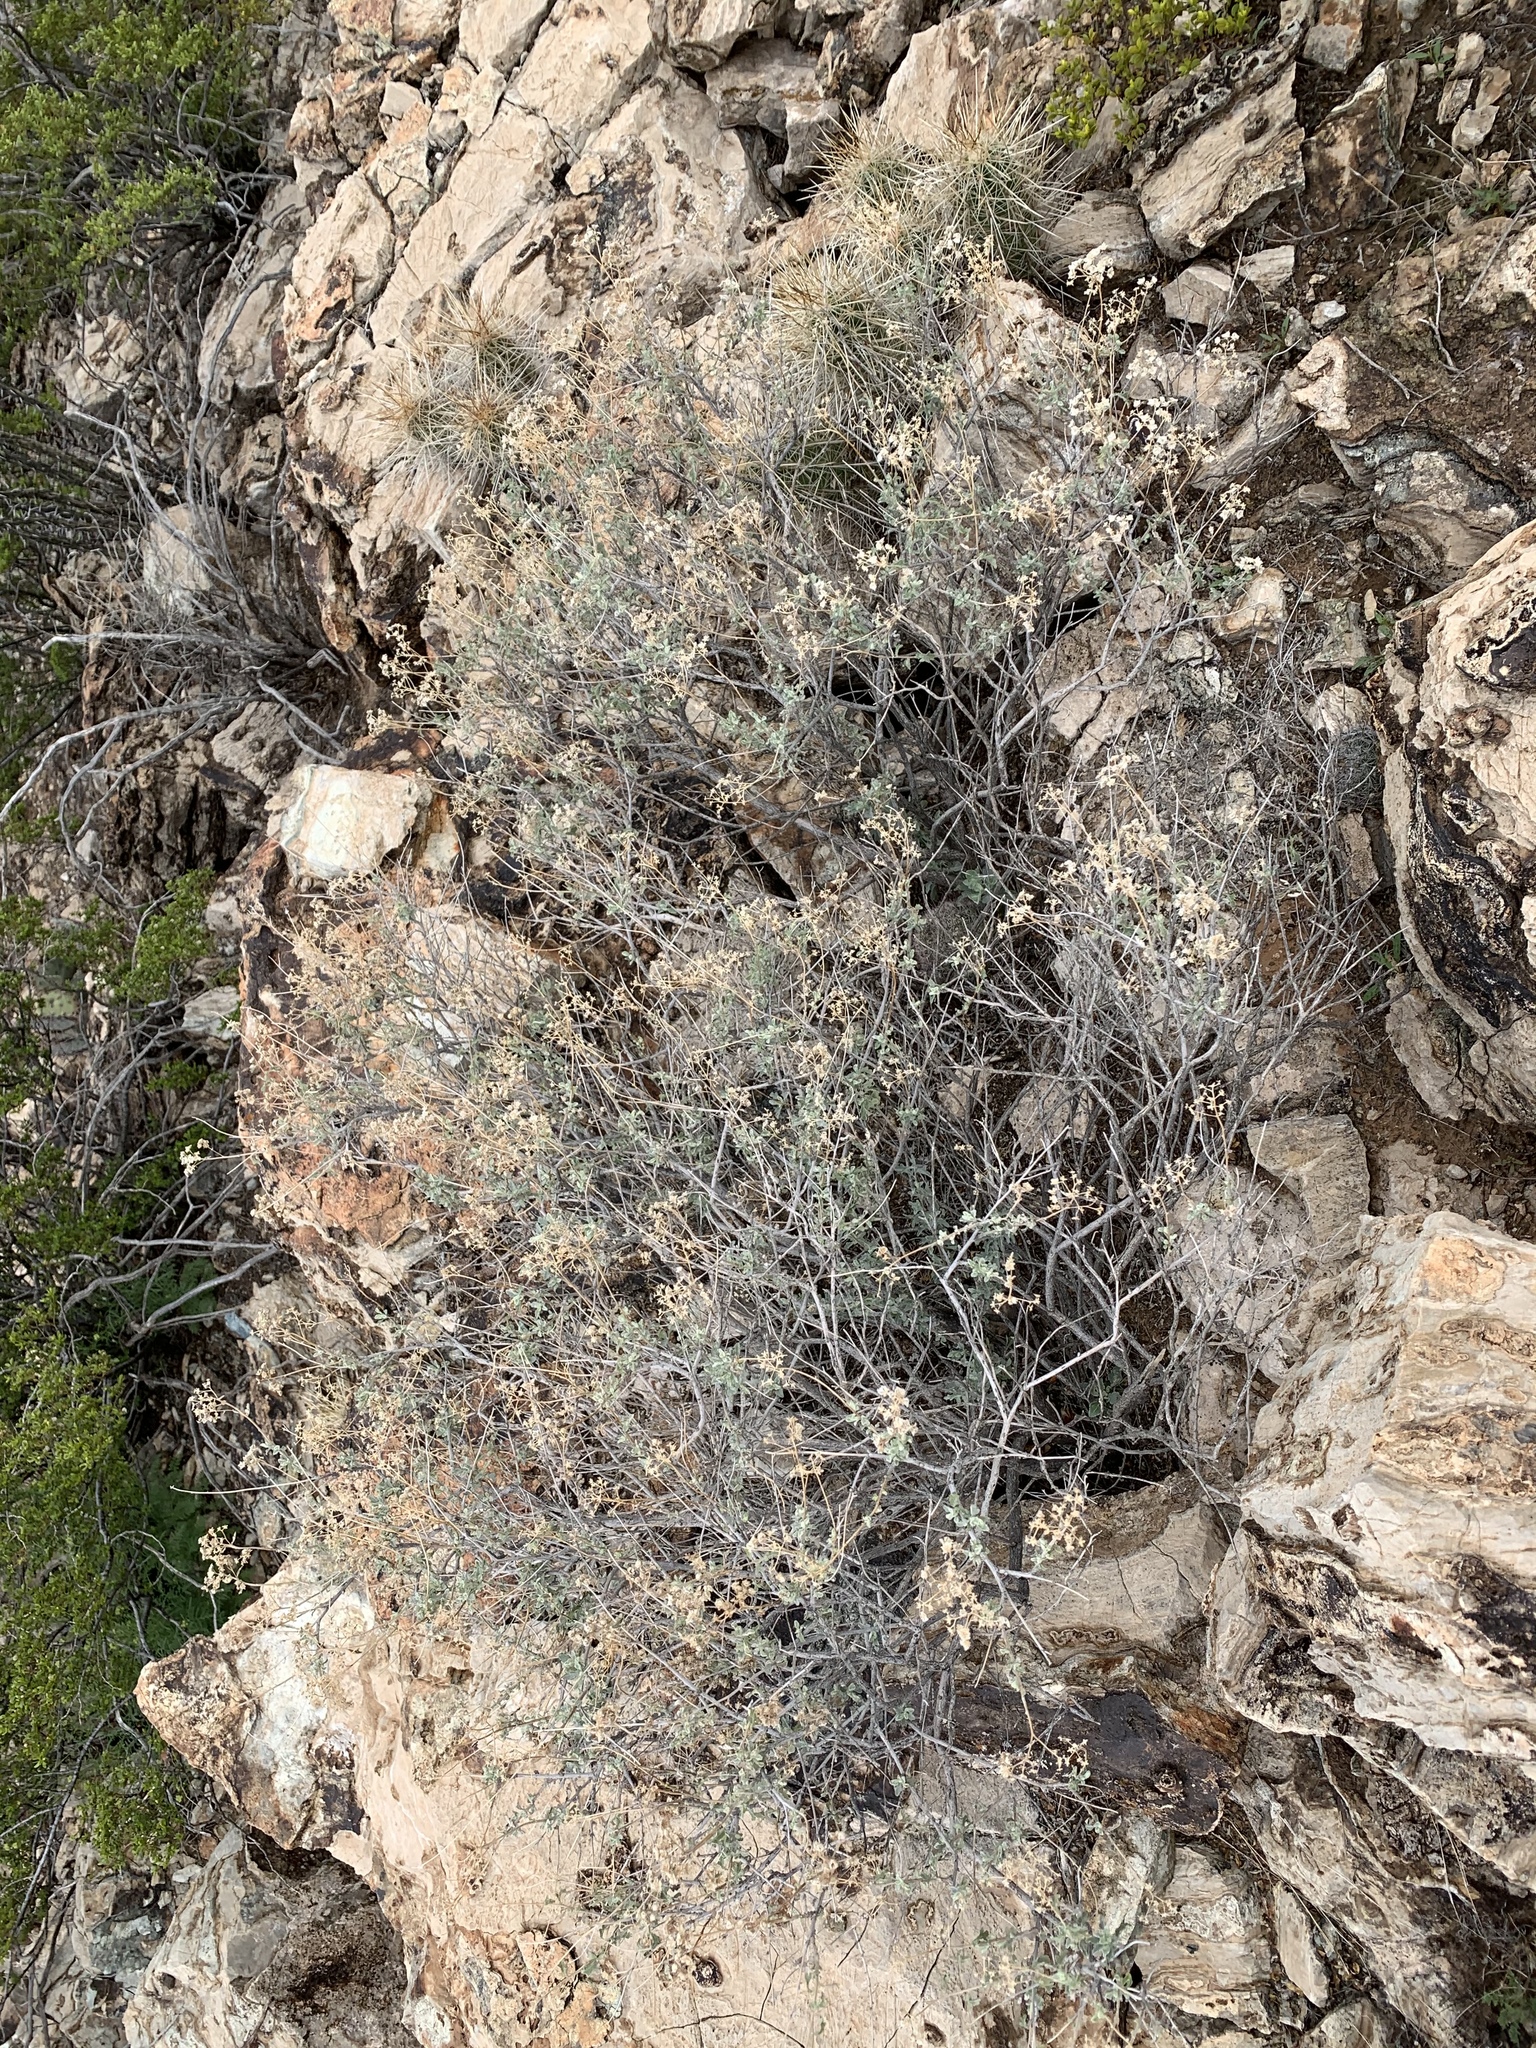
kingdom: Plantae
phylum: Tracheophyta
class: Magnoliopsida
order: Asterales
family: Asteraceae
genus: Parthenium
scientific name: Parthenium incanum
